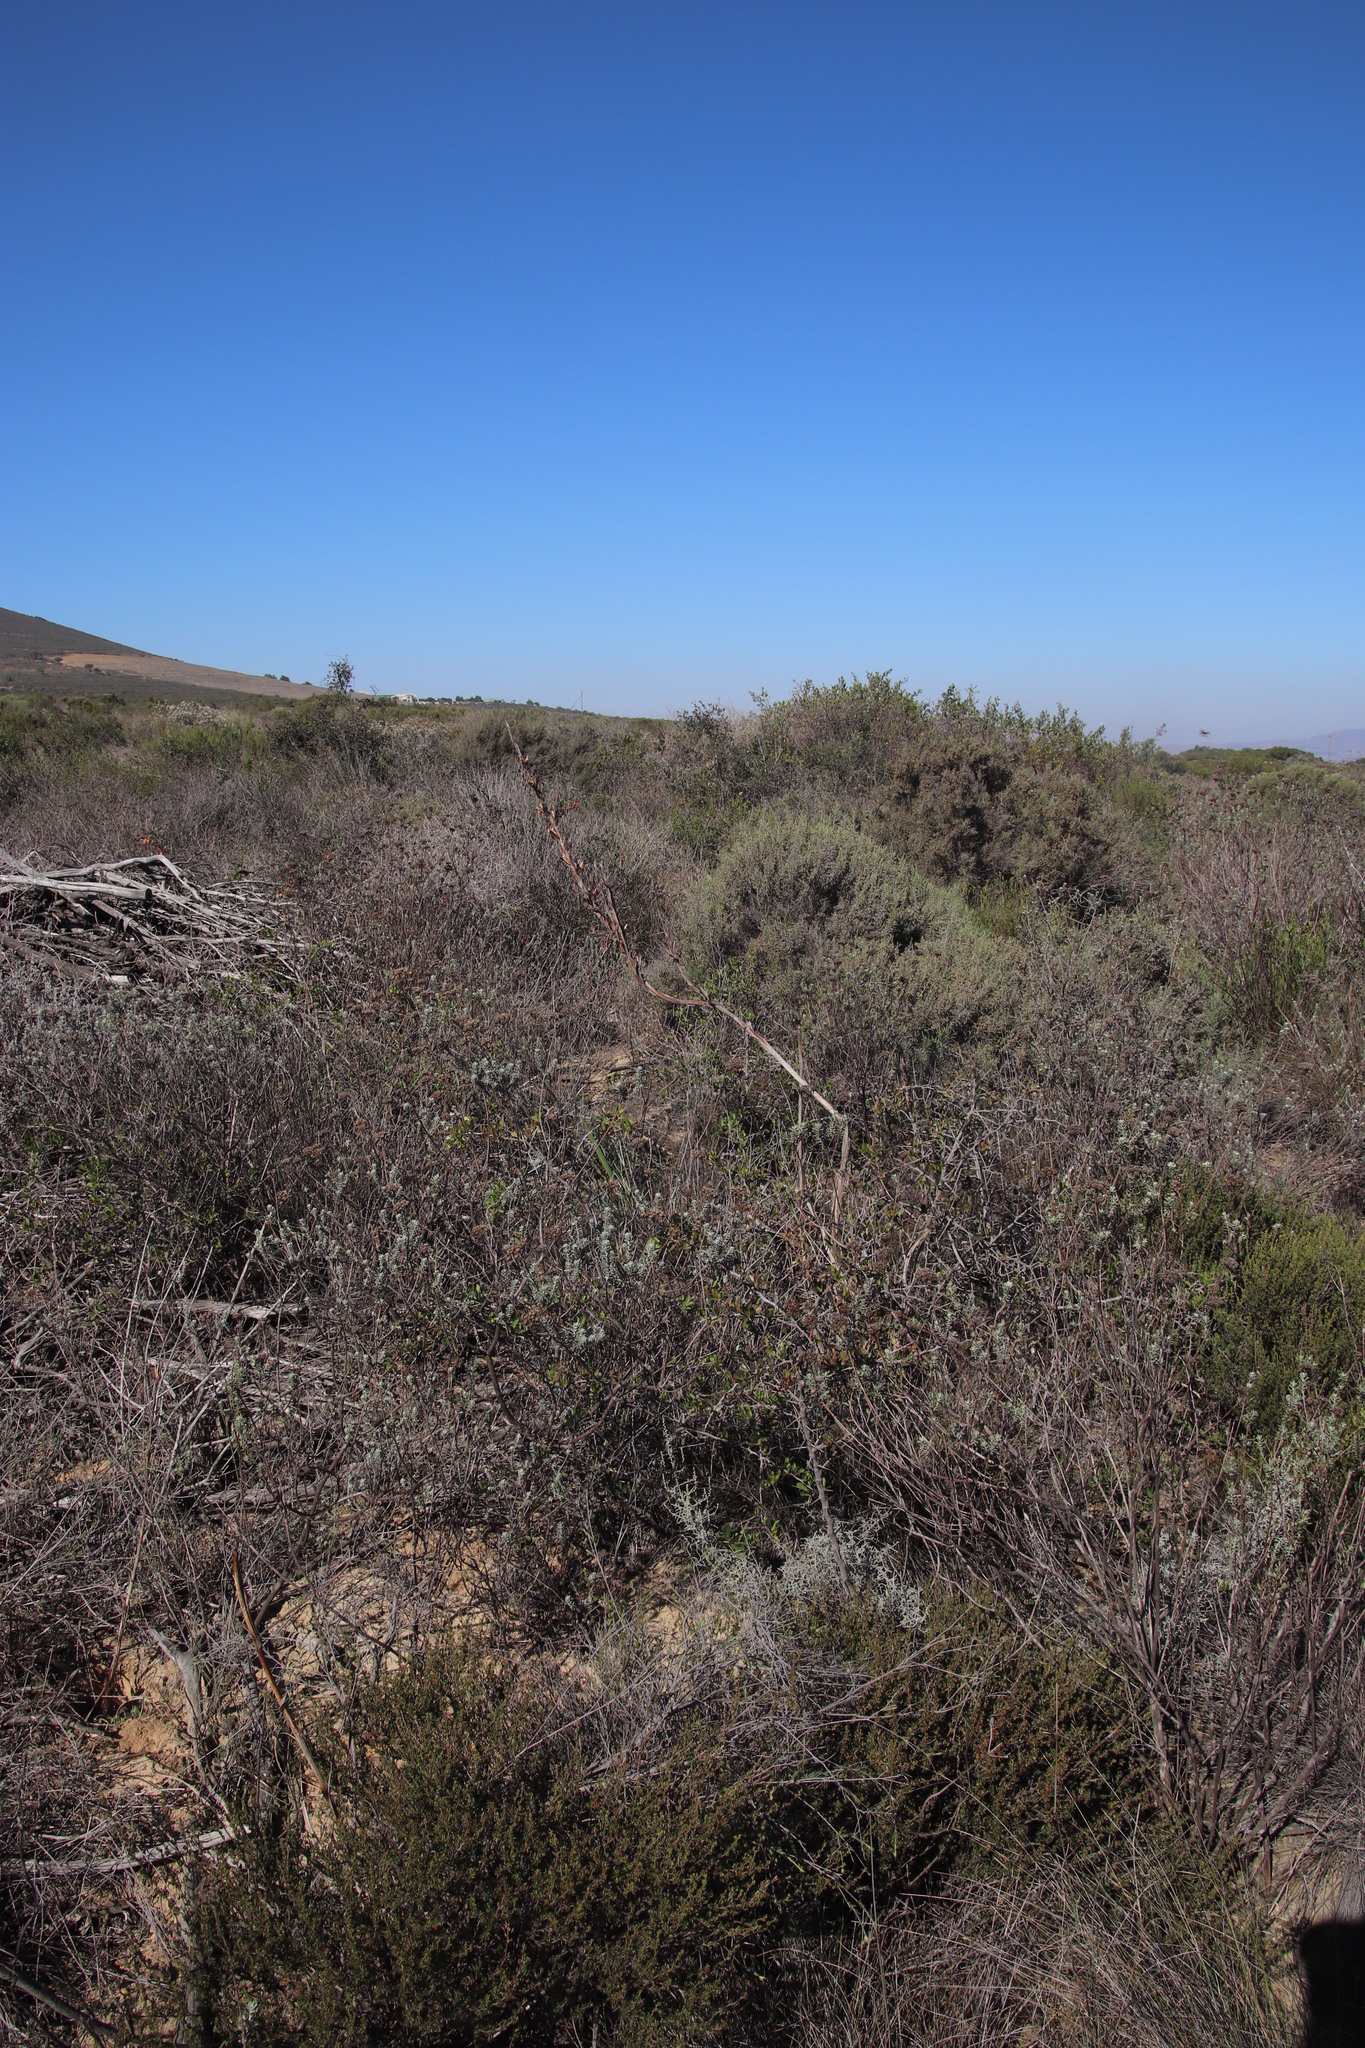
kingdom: Plantae
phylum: Tracheophyta
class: Liliopsida
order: Asparagales
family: Iridaceae
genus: Watsonia
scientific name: Watsonia meriana
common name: Bulbil bugle-lily
